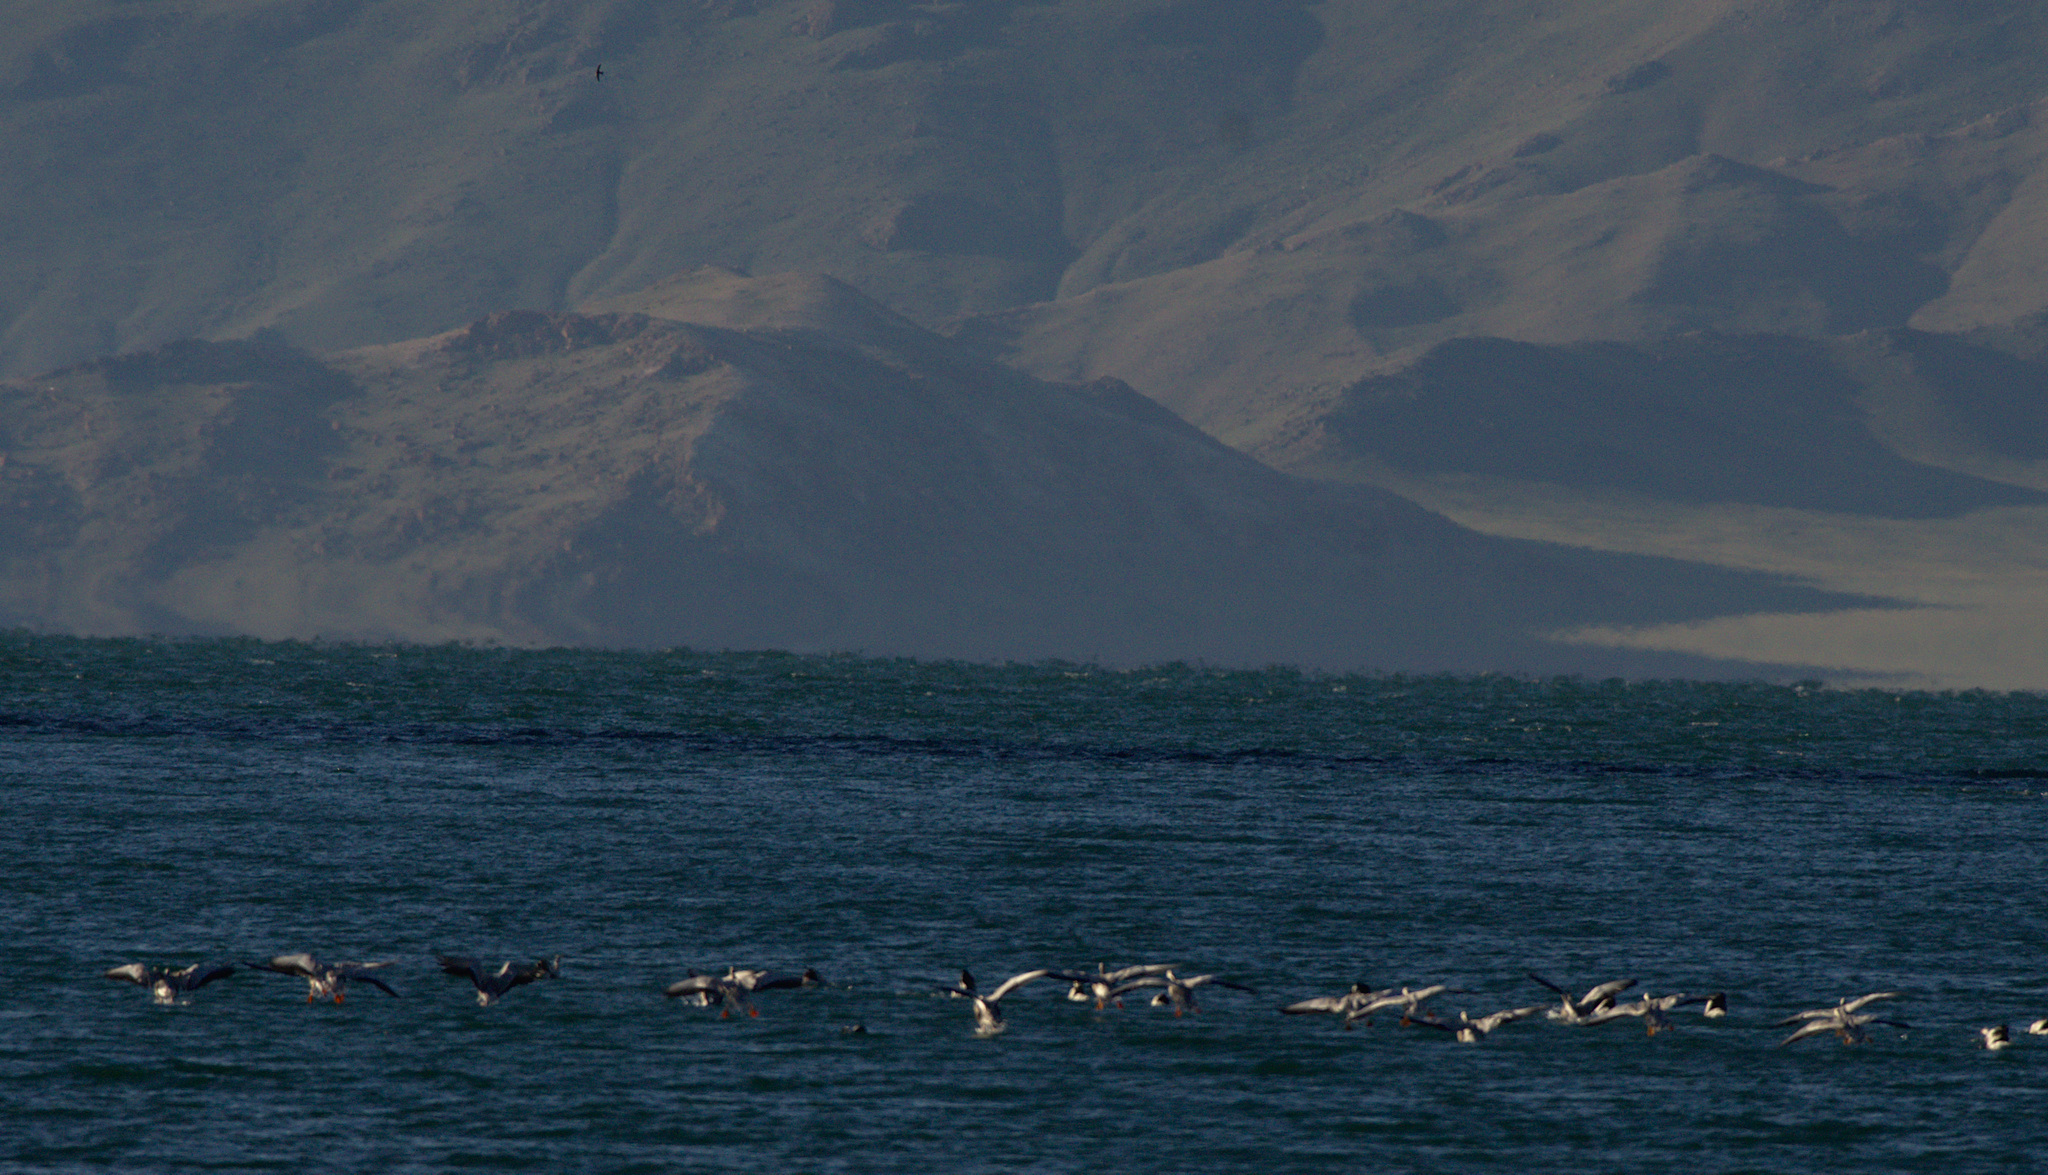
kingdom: Animalia
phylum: Chordata
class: Aves
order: Anseriformes
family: Anatidae
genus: Anser
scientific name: Anser indicus
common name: Bar-headed goose
